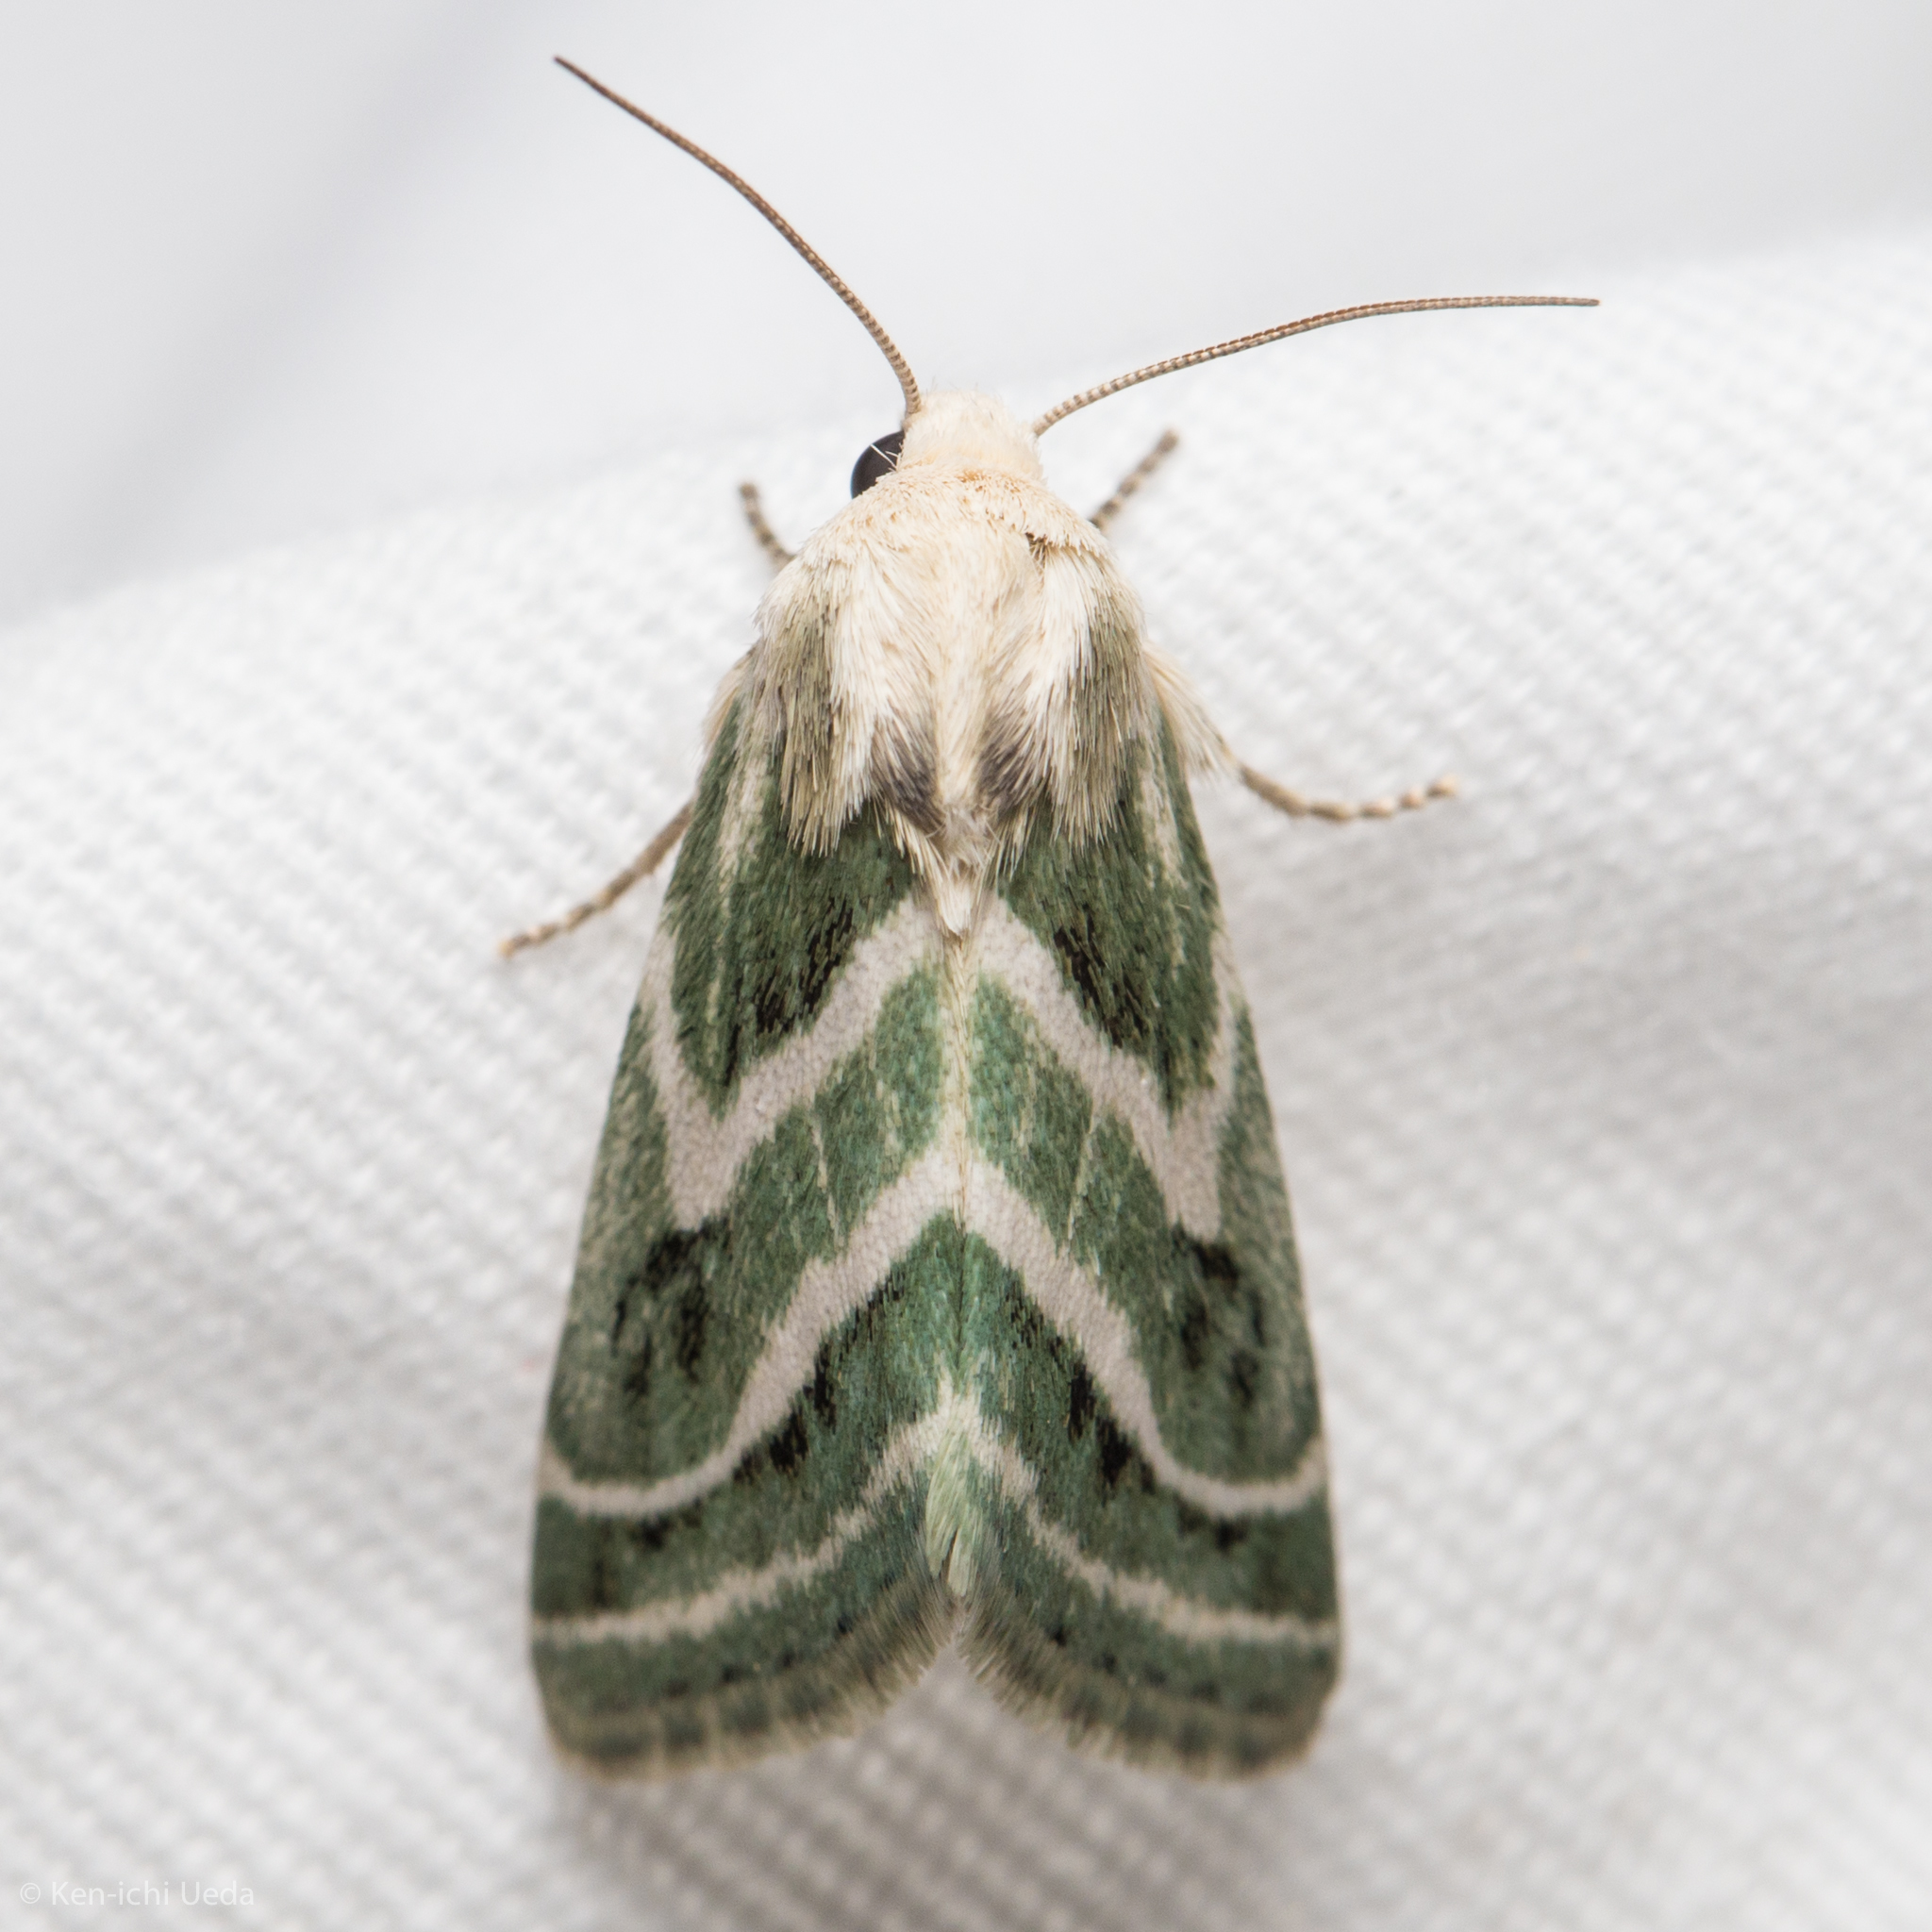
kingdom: Animalia
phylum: Arthropoda
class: Insecta
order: Lepidoptera
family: Noctuidae
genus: Schinia
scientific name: Schinia accessa
